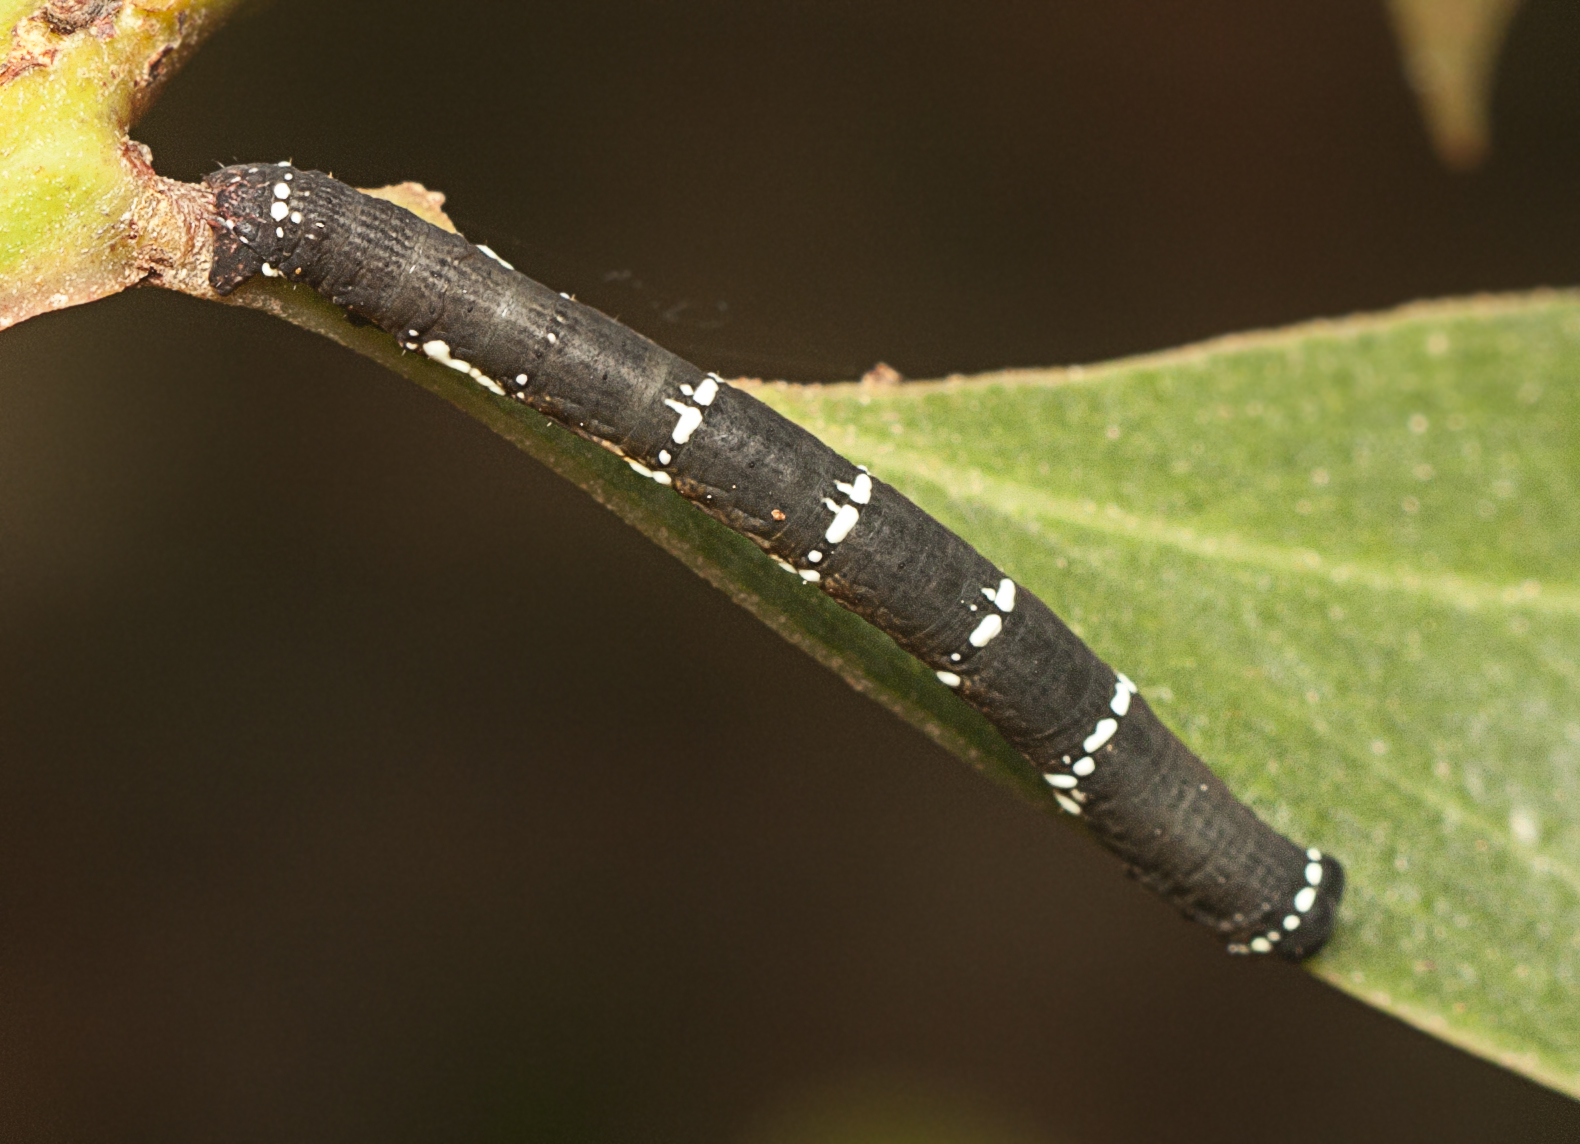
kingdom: Animalia
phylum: Arthropoda
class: Insecta
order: Lepidoptera
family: Geometridae
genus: Pholodes
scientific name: Pholodes sinistraria
